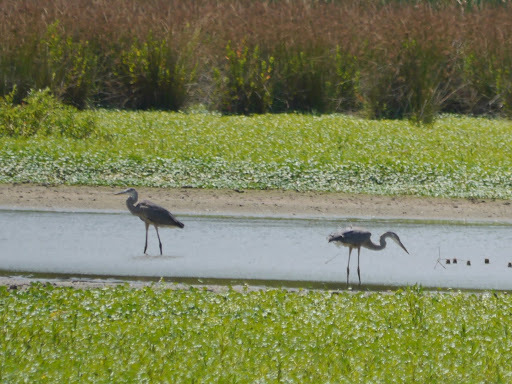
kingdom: Animalia
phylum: Chordata
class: Aves
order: Pelecaniformes
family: Ardeidae
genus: Ardea
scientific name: Ardea herodias
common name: Great blue heron
